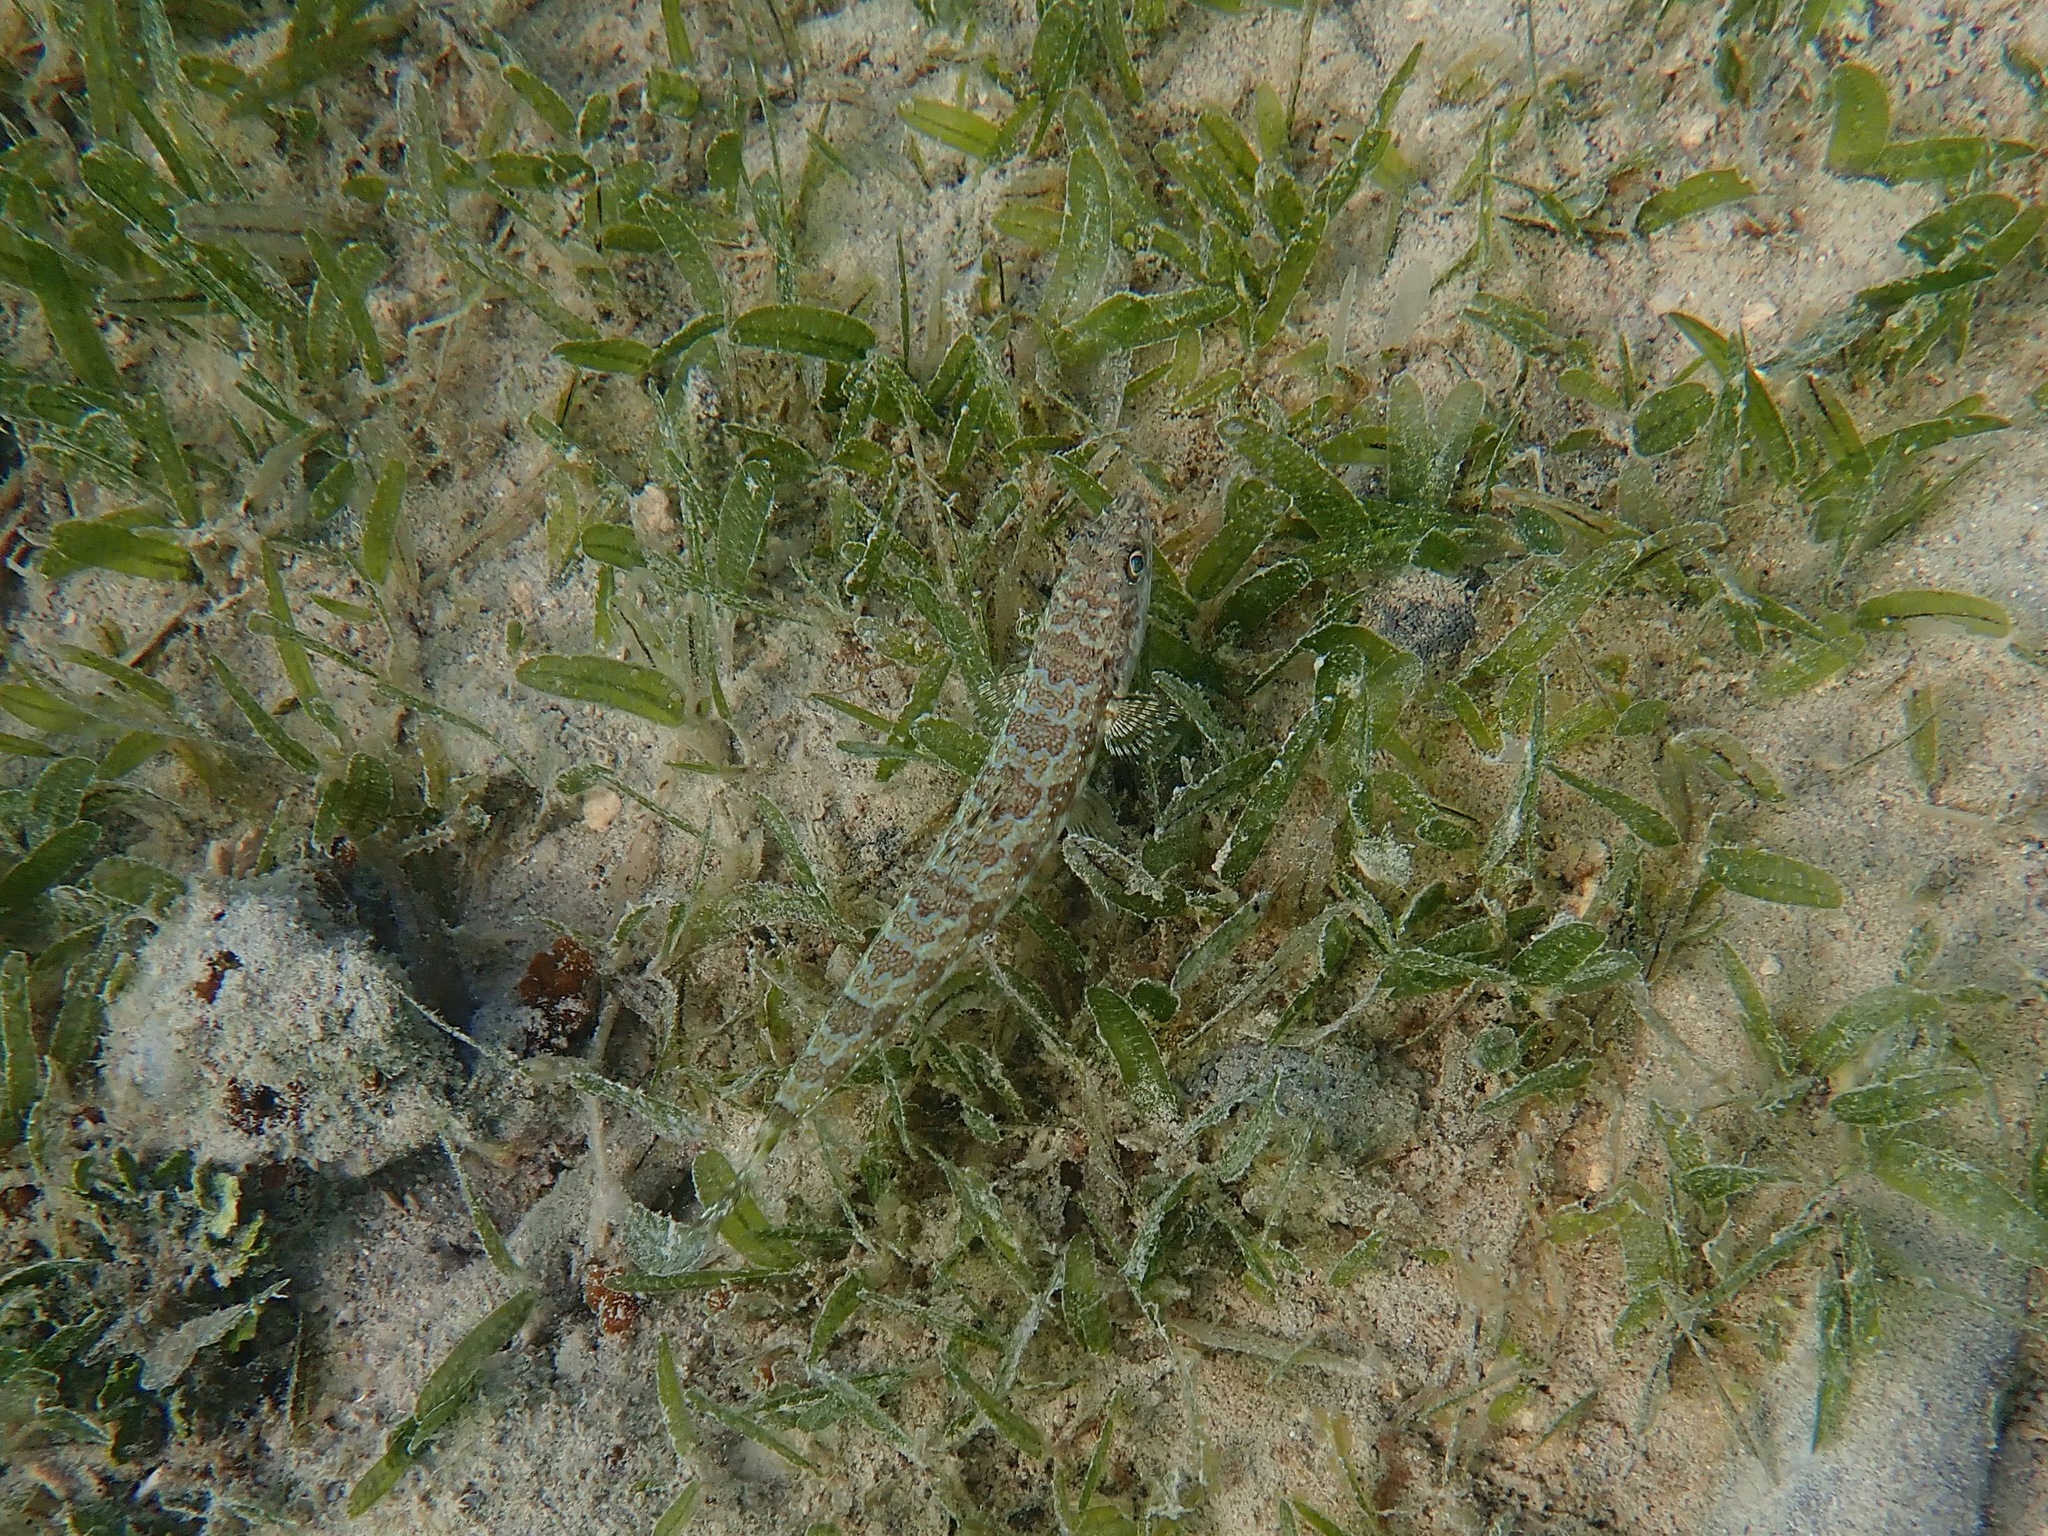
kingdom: Animalia
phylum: Chordata
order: Aulopiformes
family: Synodontidae
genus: Synodus
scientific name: Synodus intermedius
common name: Sand diver
